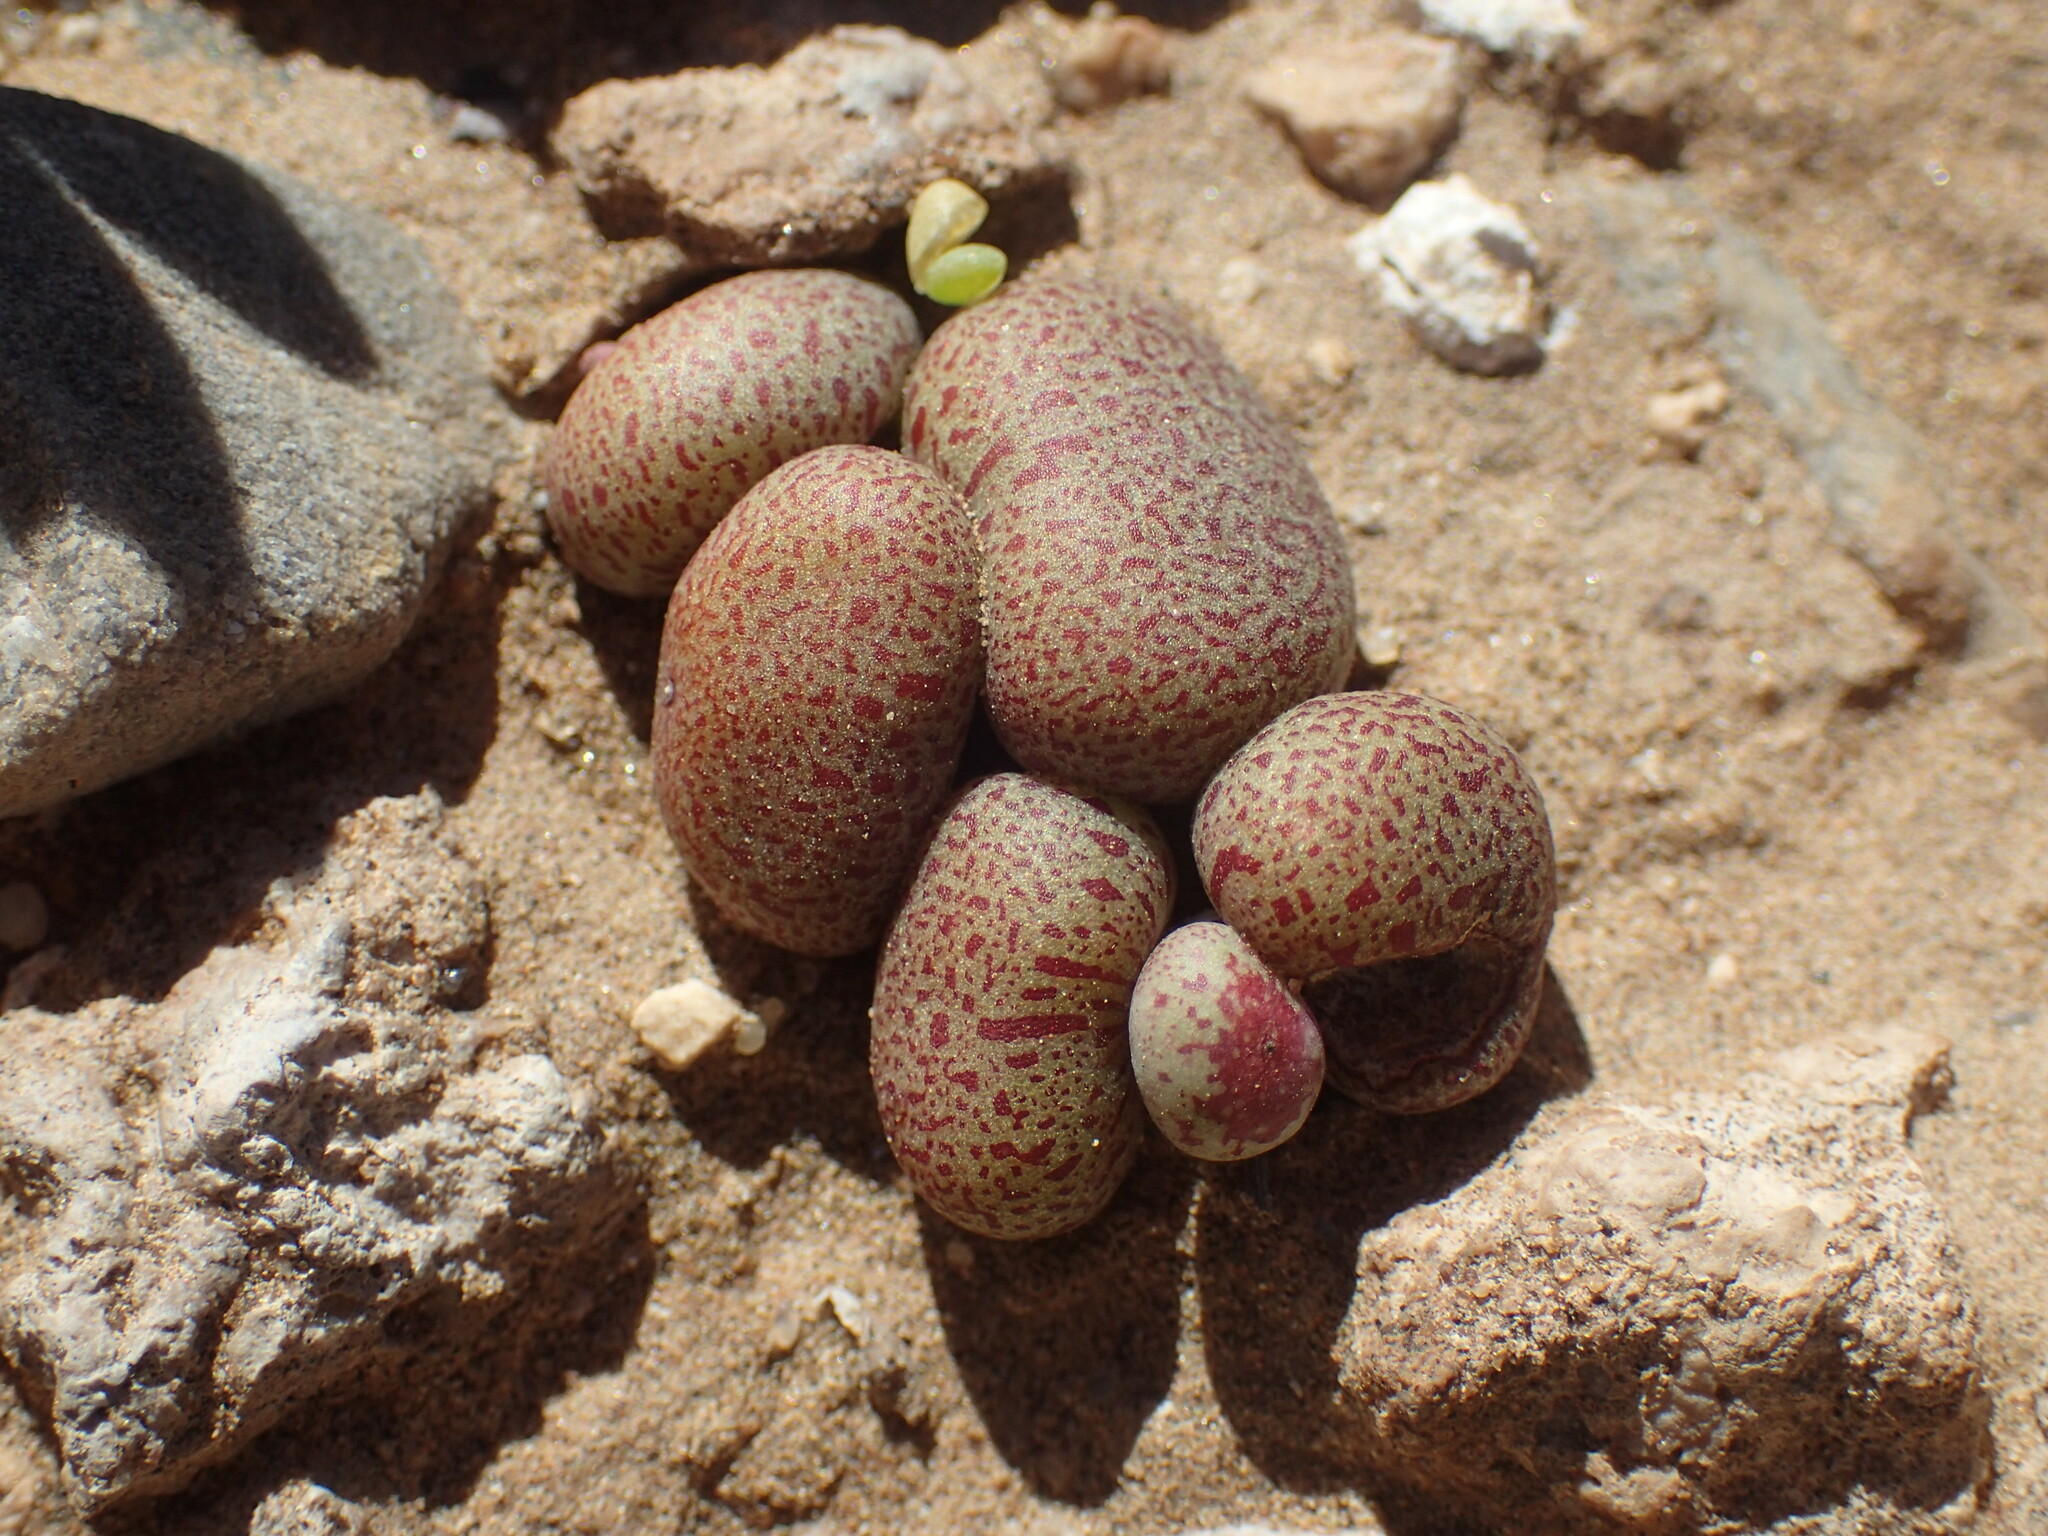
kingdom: Plantae
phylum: Tracheophyta
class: Magnoliopsida
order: Saxifragales
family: Crassulaceae
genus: Tylecodon
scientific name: Tylecodon schaeferianus
